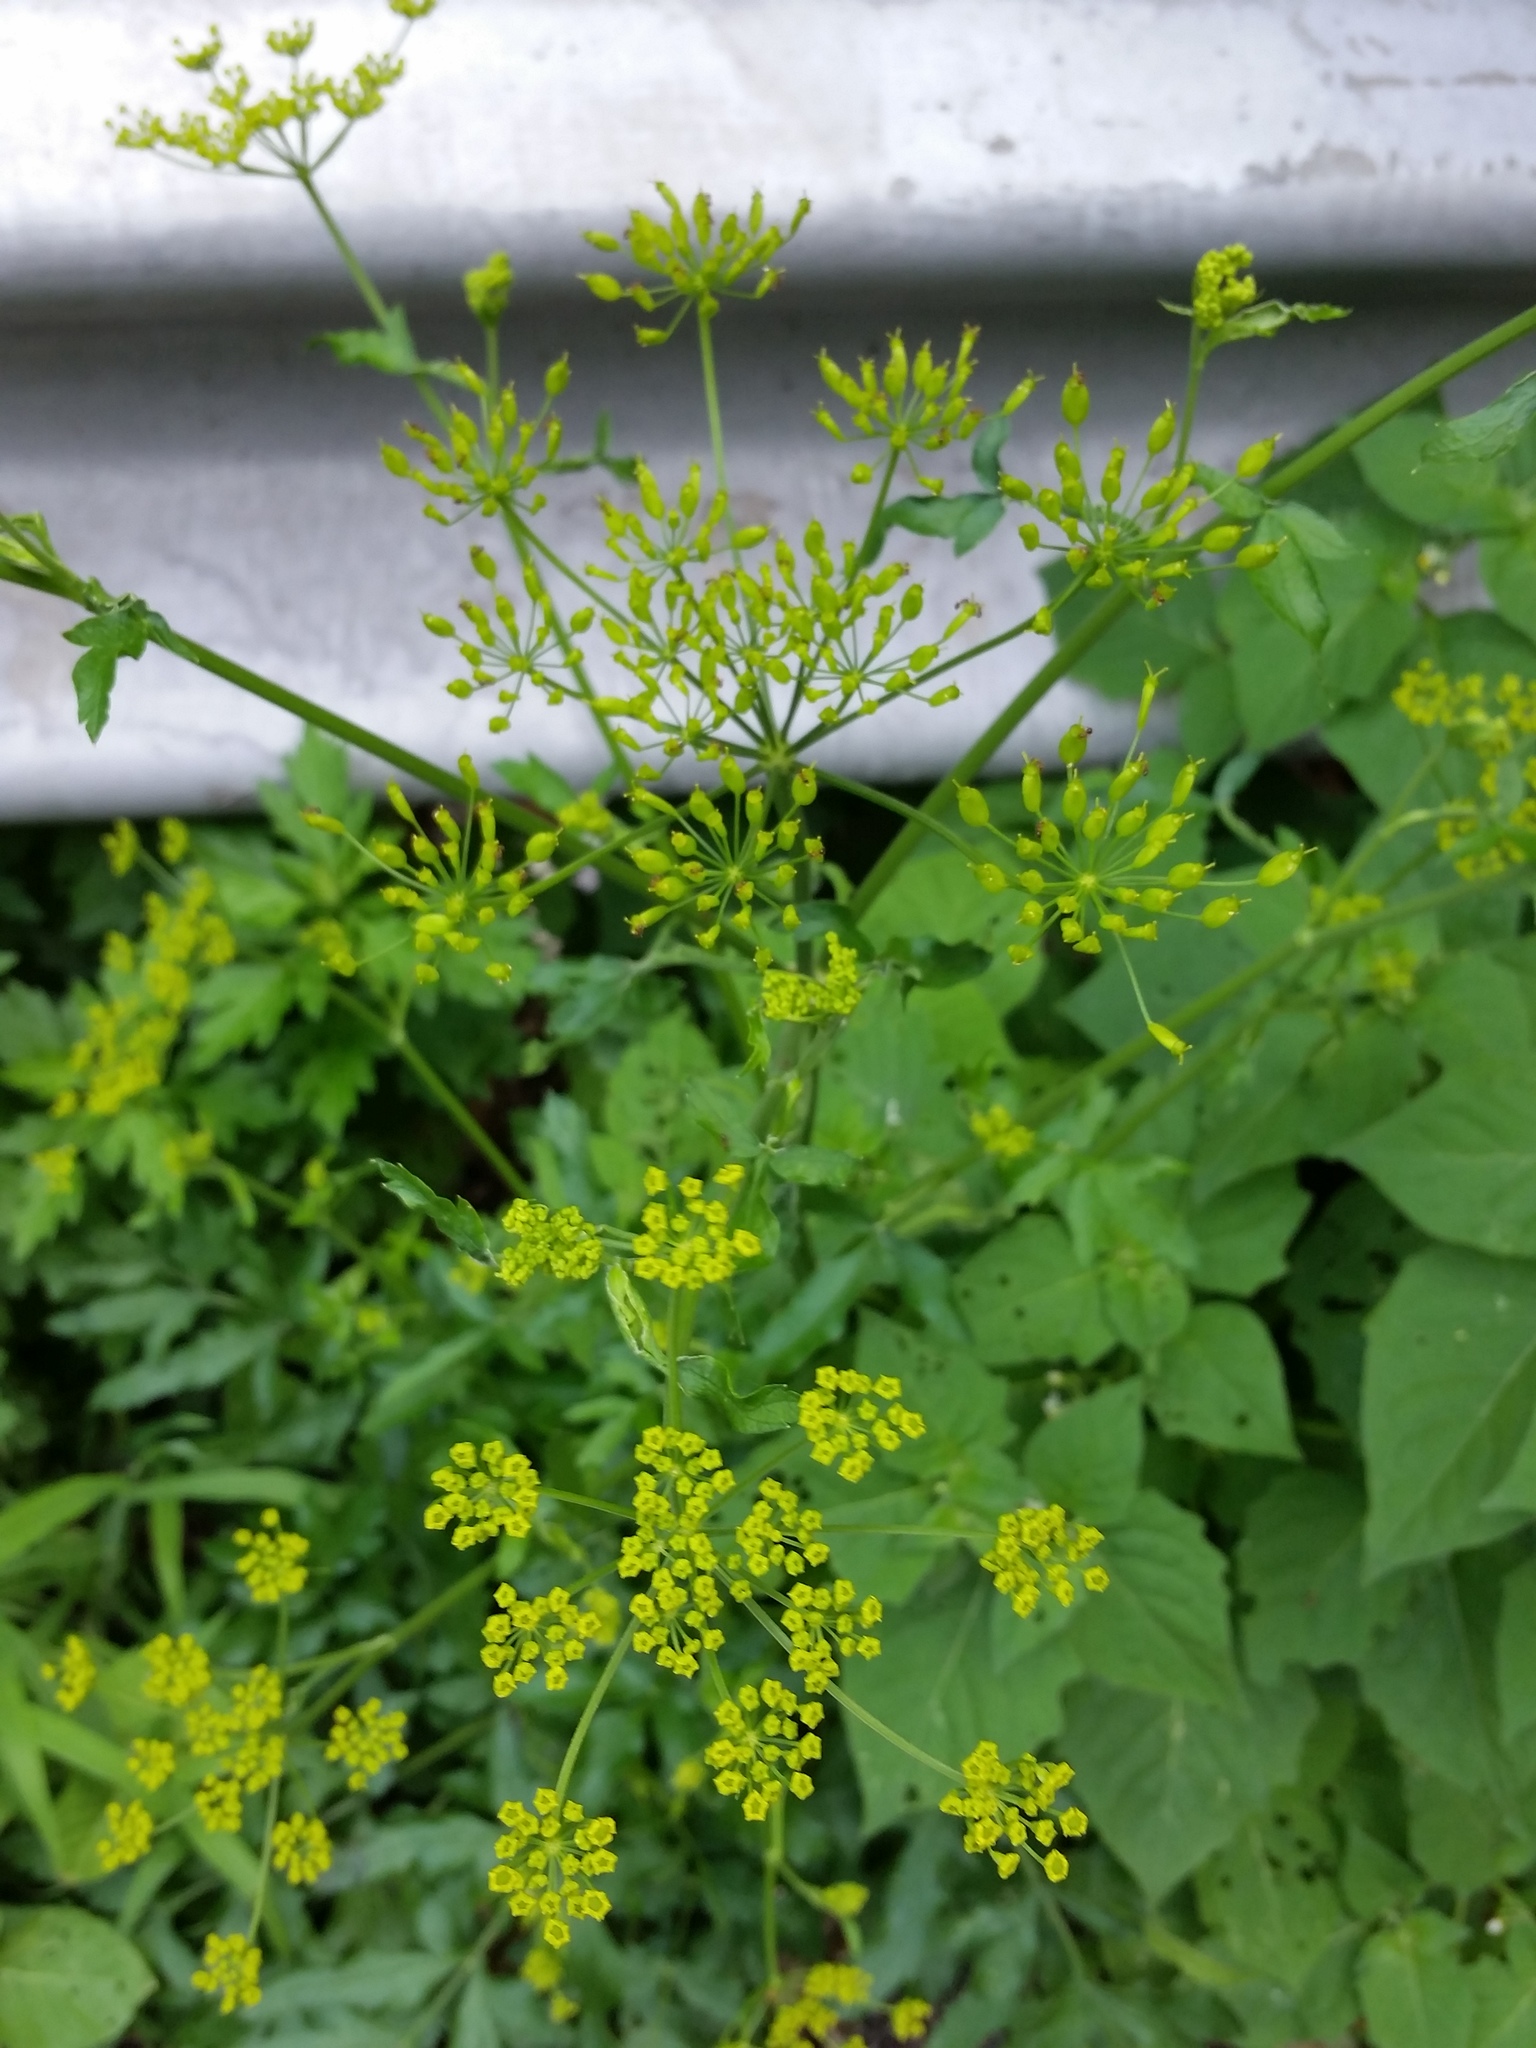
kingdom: Plantae
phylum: Tracheophyta
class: Magnoliopsida
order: Apiales
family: Apiaceae
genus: Pastinaca
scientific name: Pastinaca sativa
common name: Wild parsnip
